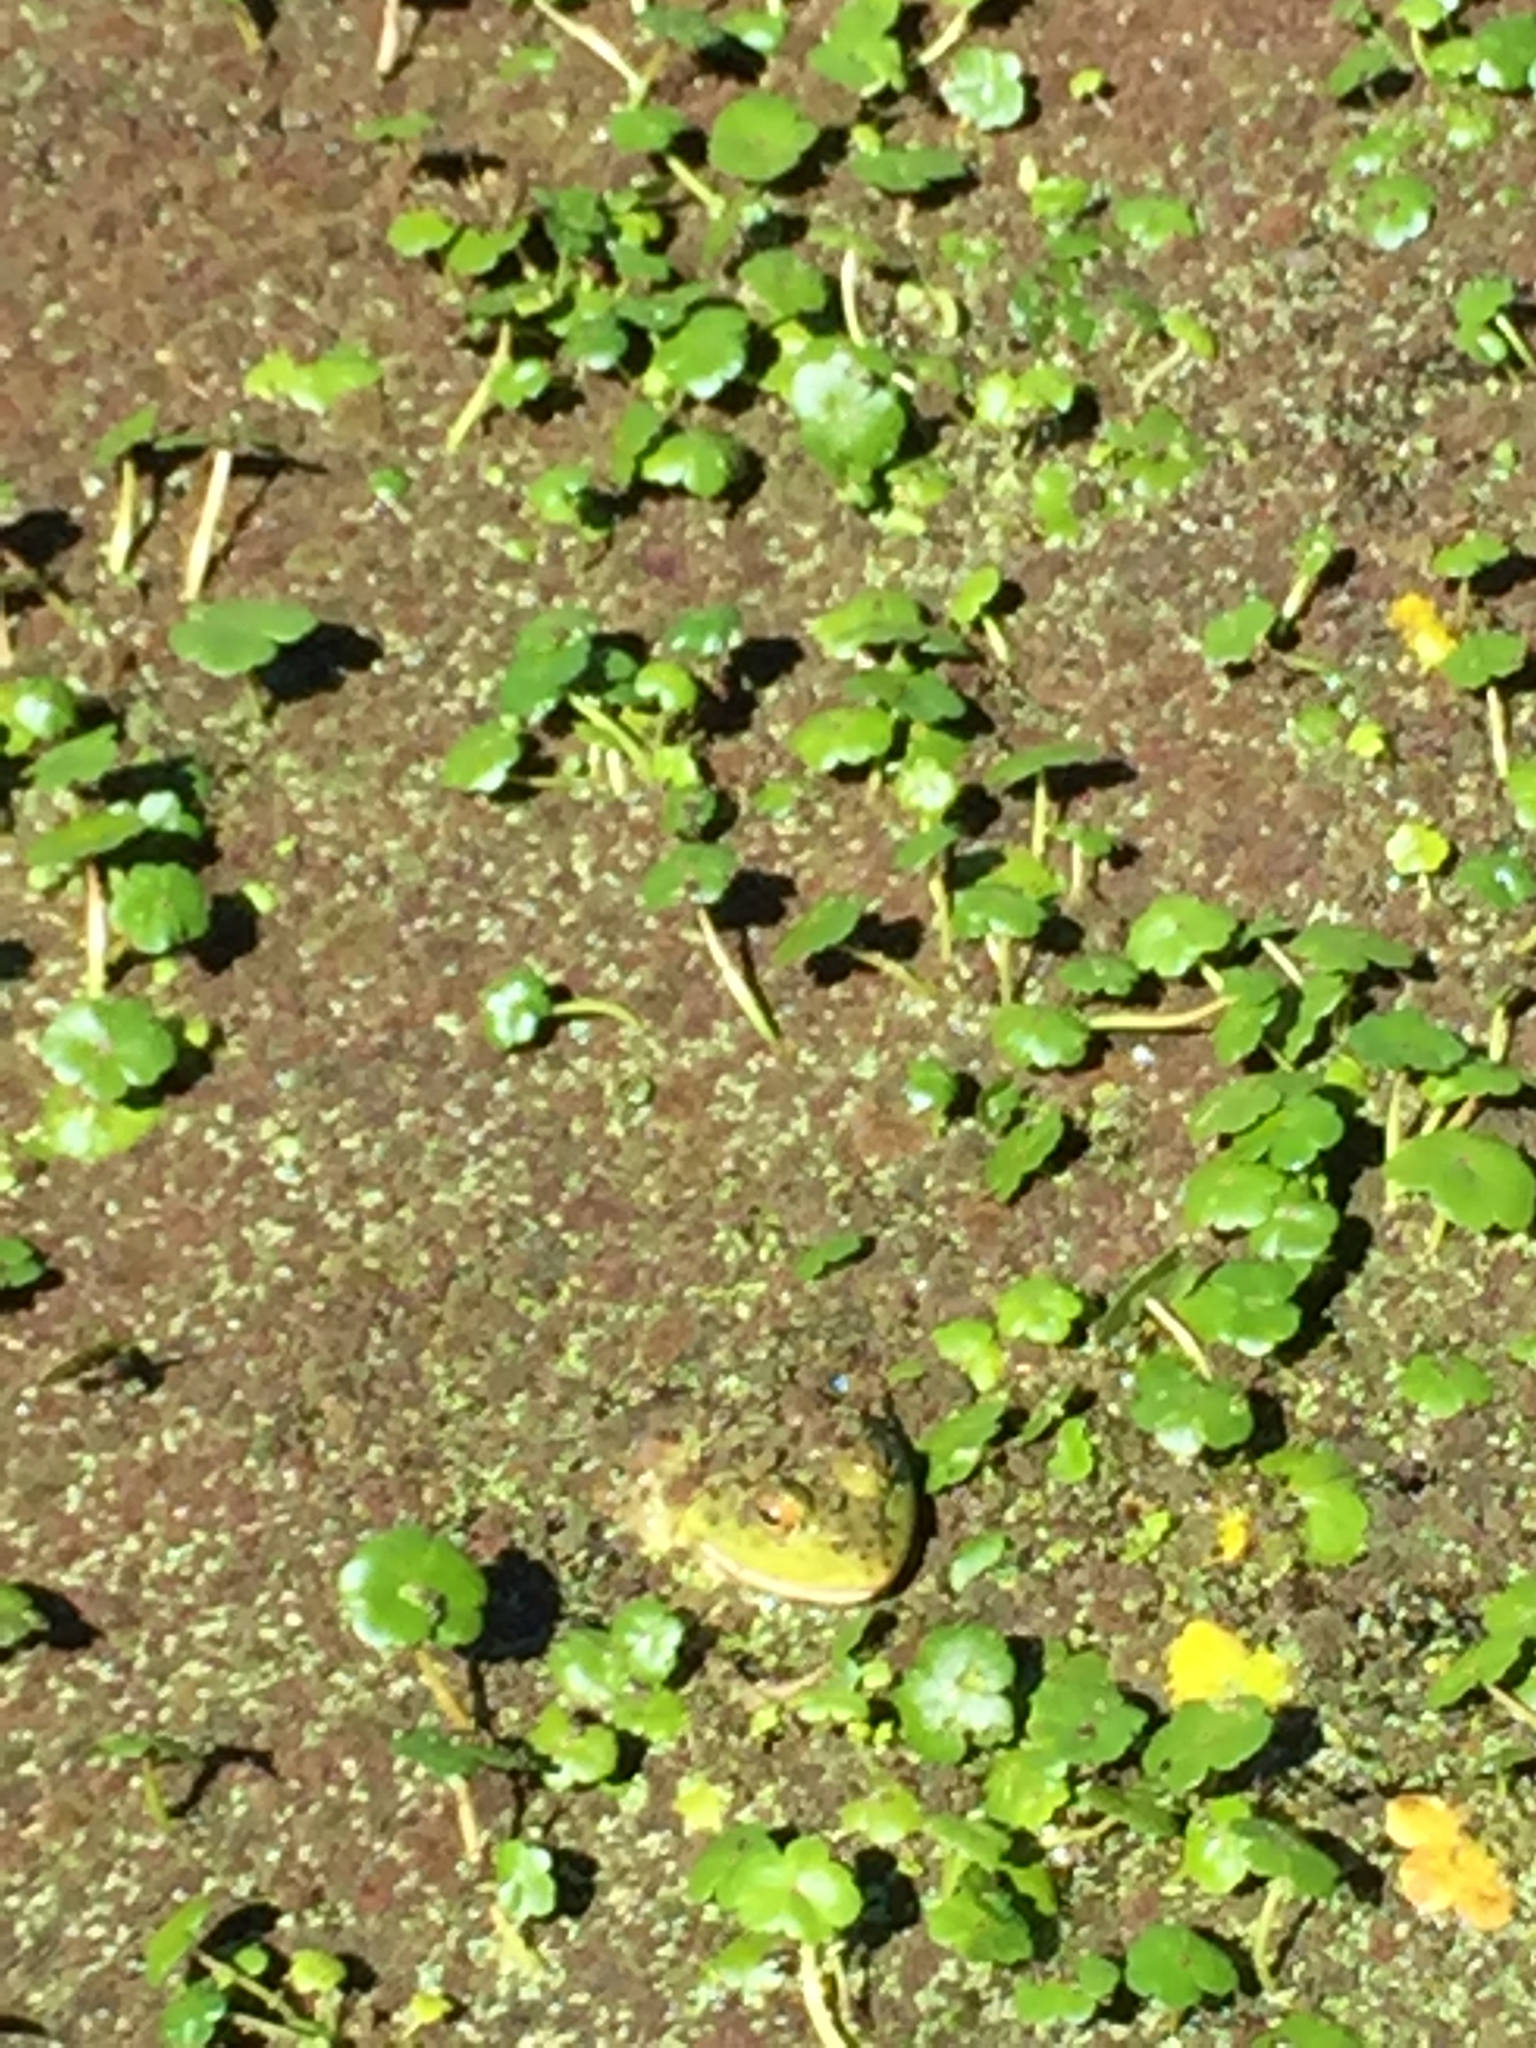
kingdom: Animalia
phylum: Chordata
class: Amphibia
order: Anura
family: Ranidae
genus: Lithobates
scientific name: Lithobates catesbeianus
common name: American bullfrog
